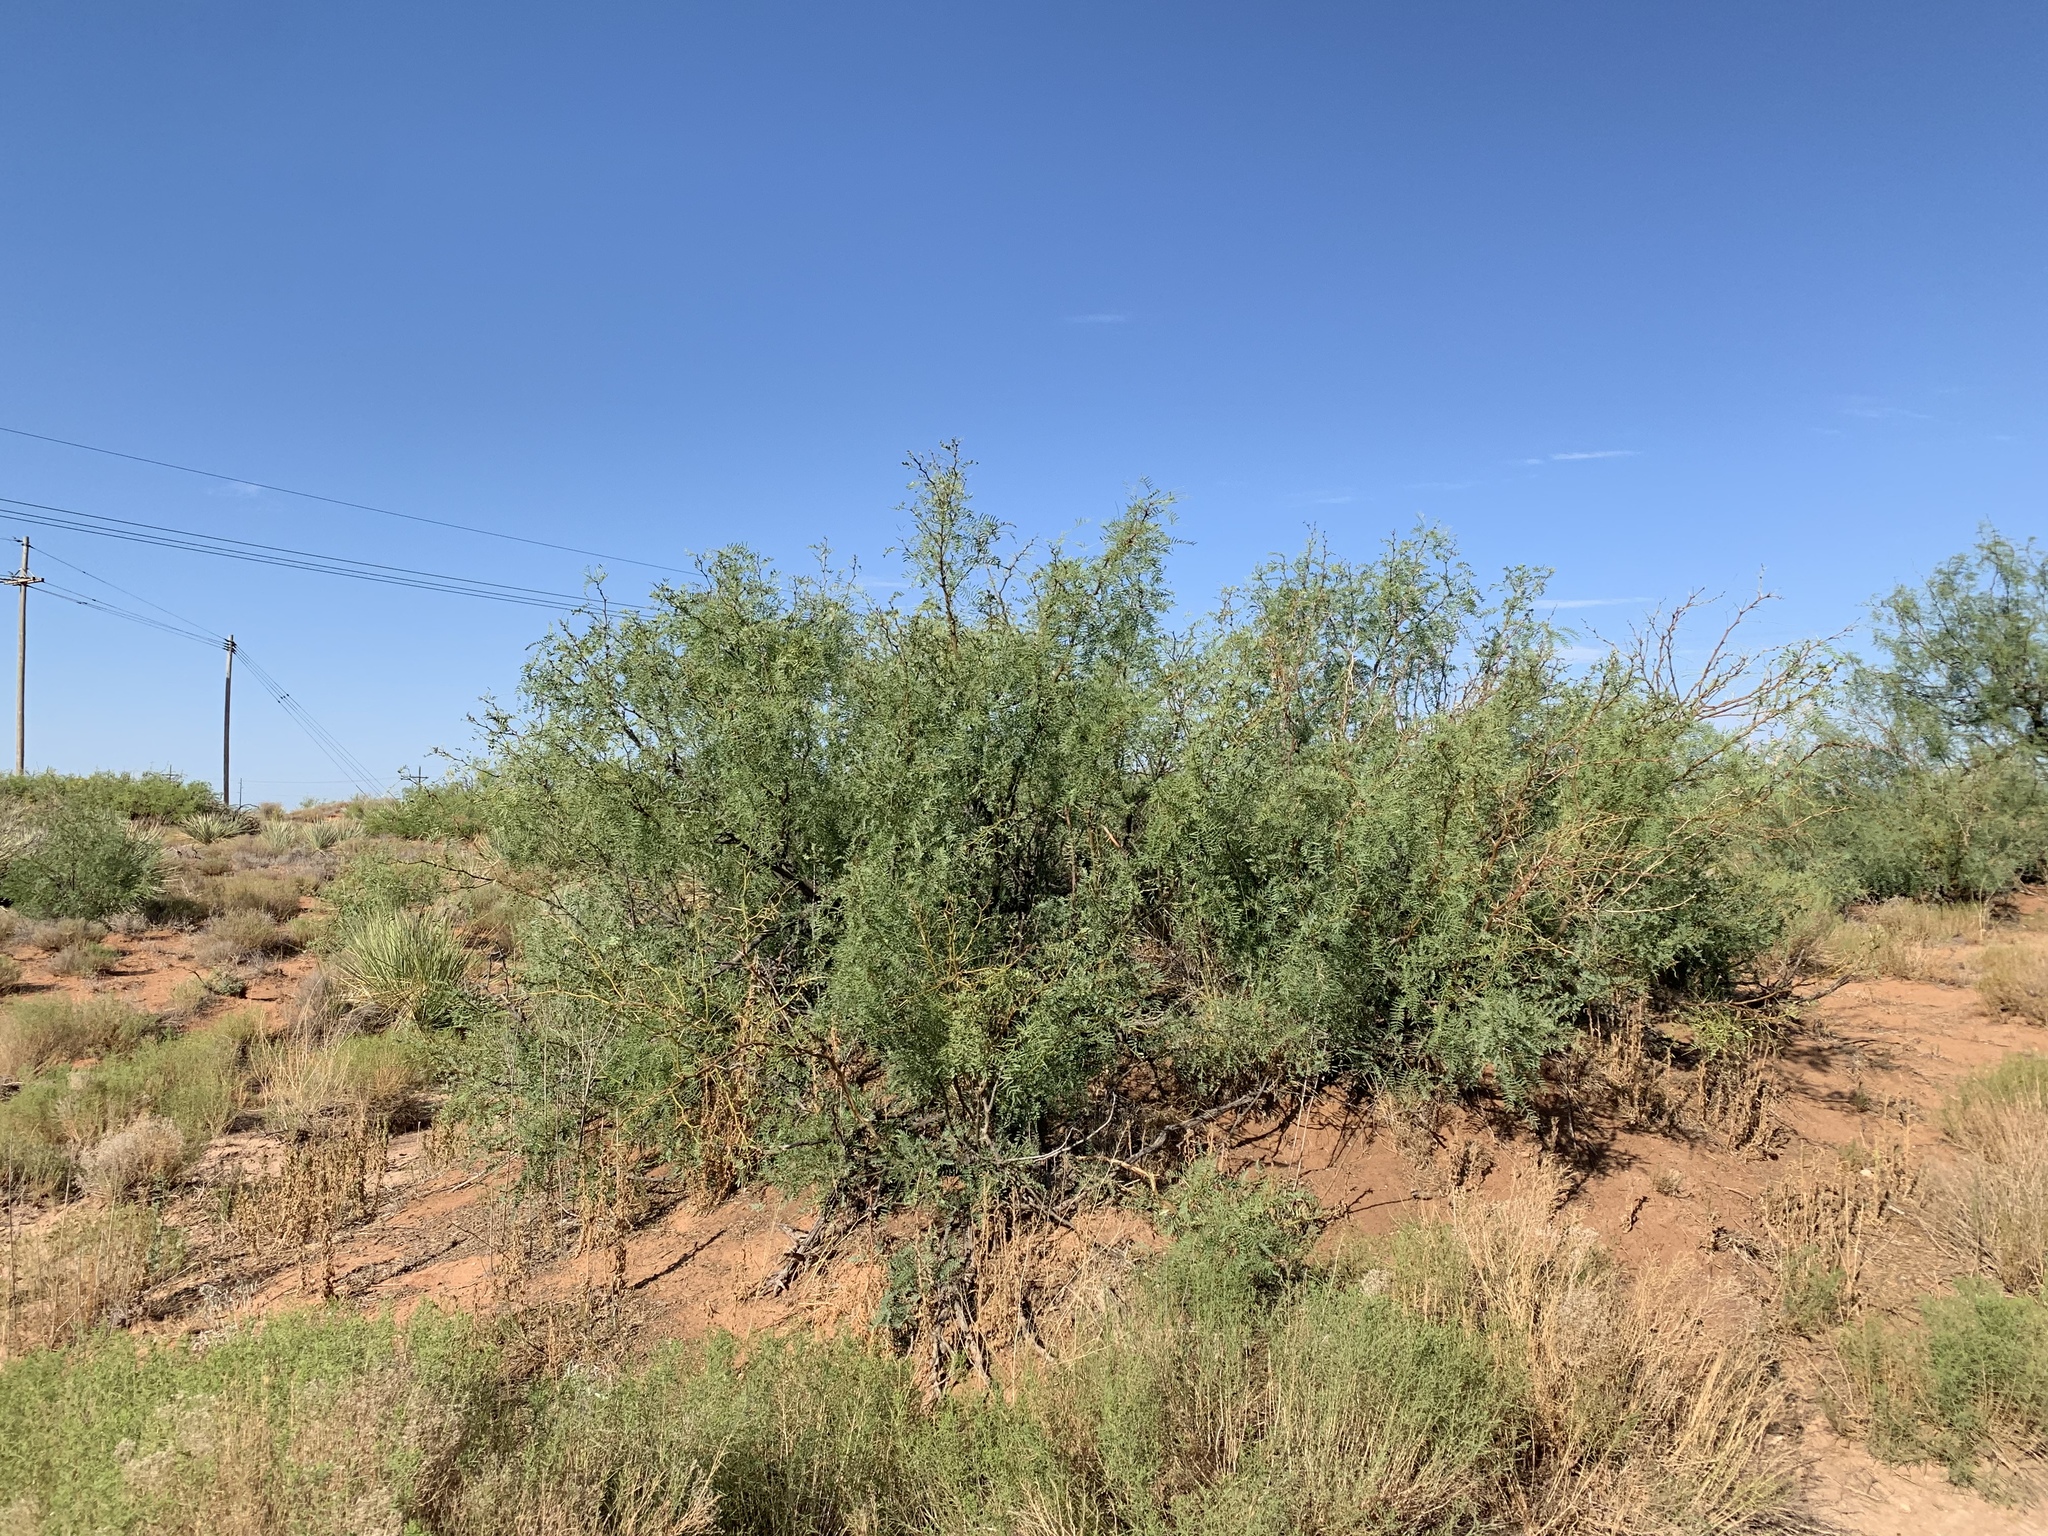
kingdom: Plantae
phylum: Tracheophyta
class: Magnoliopsida
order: Fabales
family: Fabaceae
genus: Prosopis
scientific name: Prosopis glandulosa
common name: Honey mesquite
